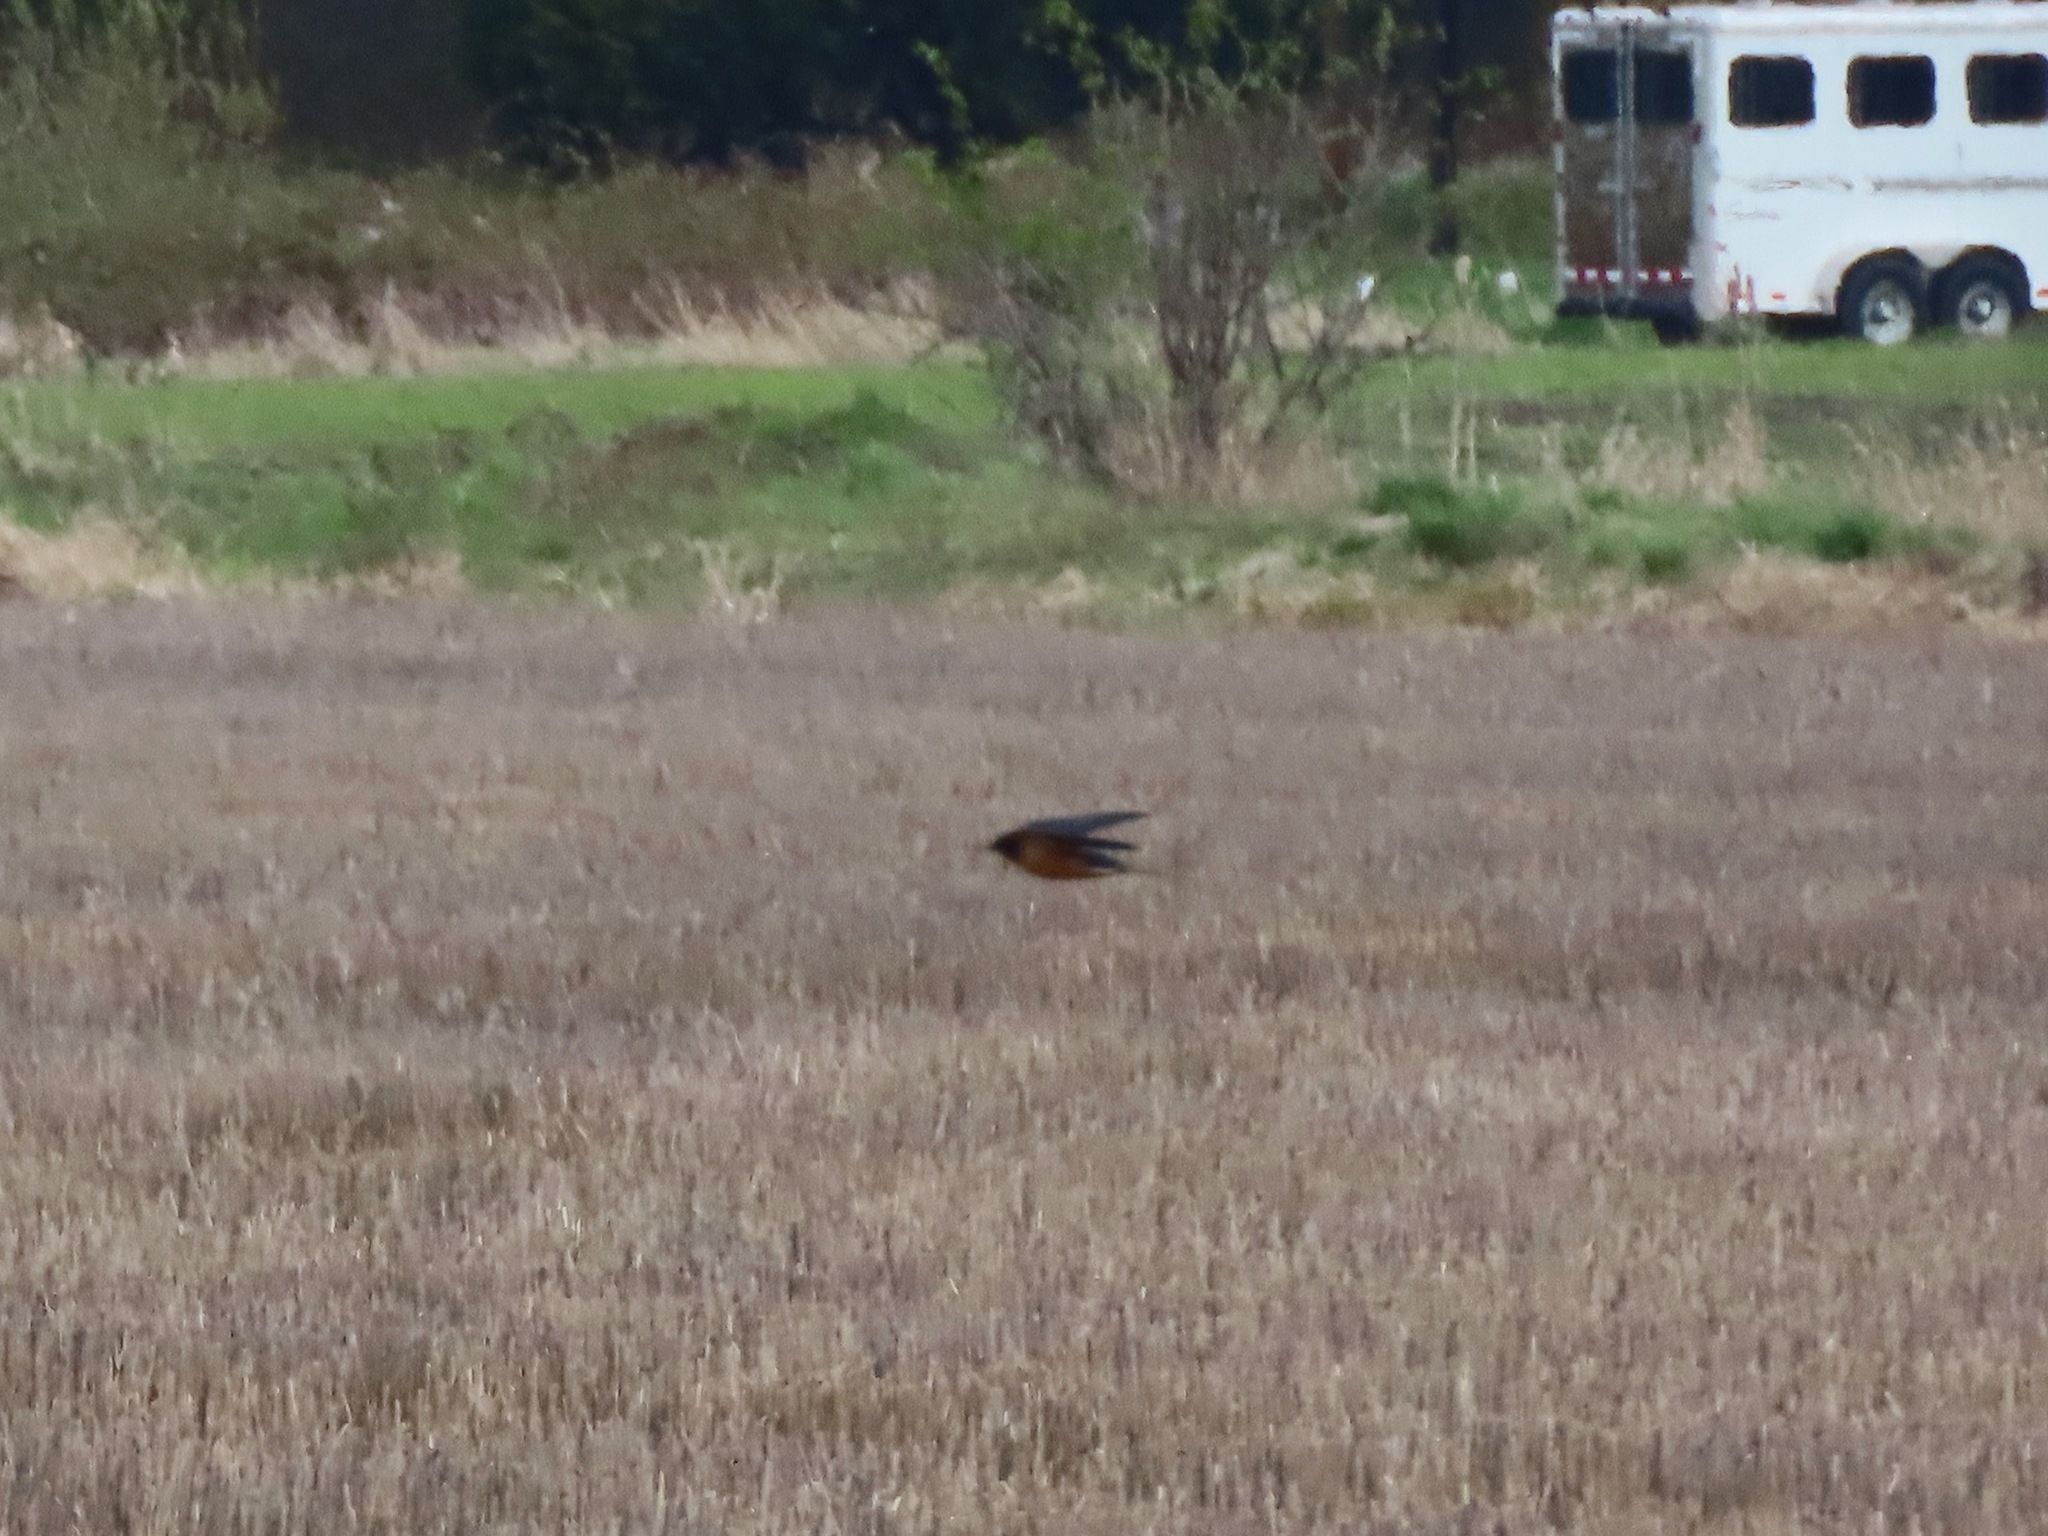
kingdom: Animalia
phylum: Chordata
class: Aves
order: Passeriformes
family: Hirundinidae
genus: Hirundo
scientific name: Hirundo rustica
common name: Barn swallow
